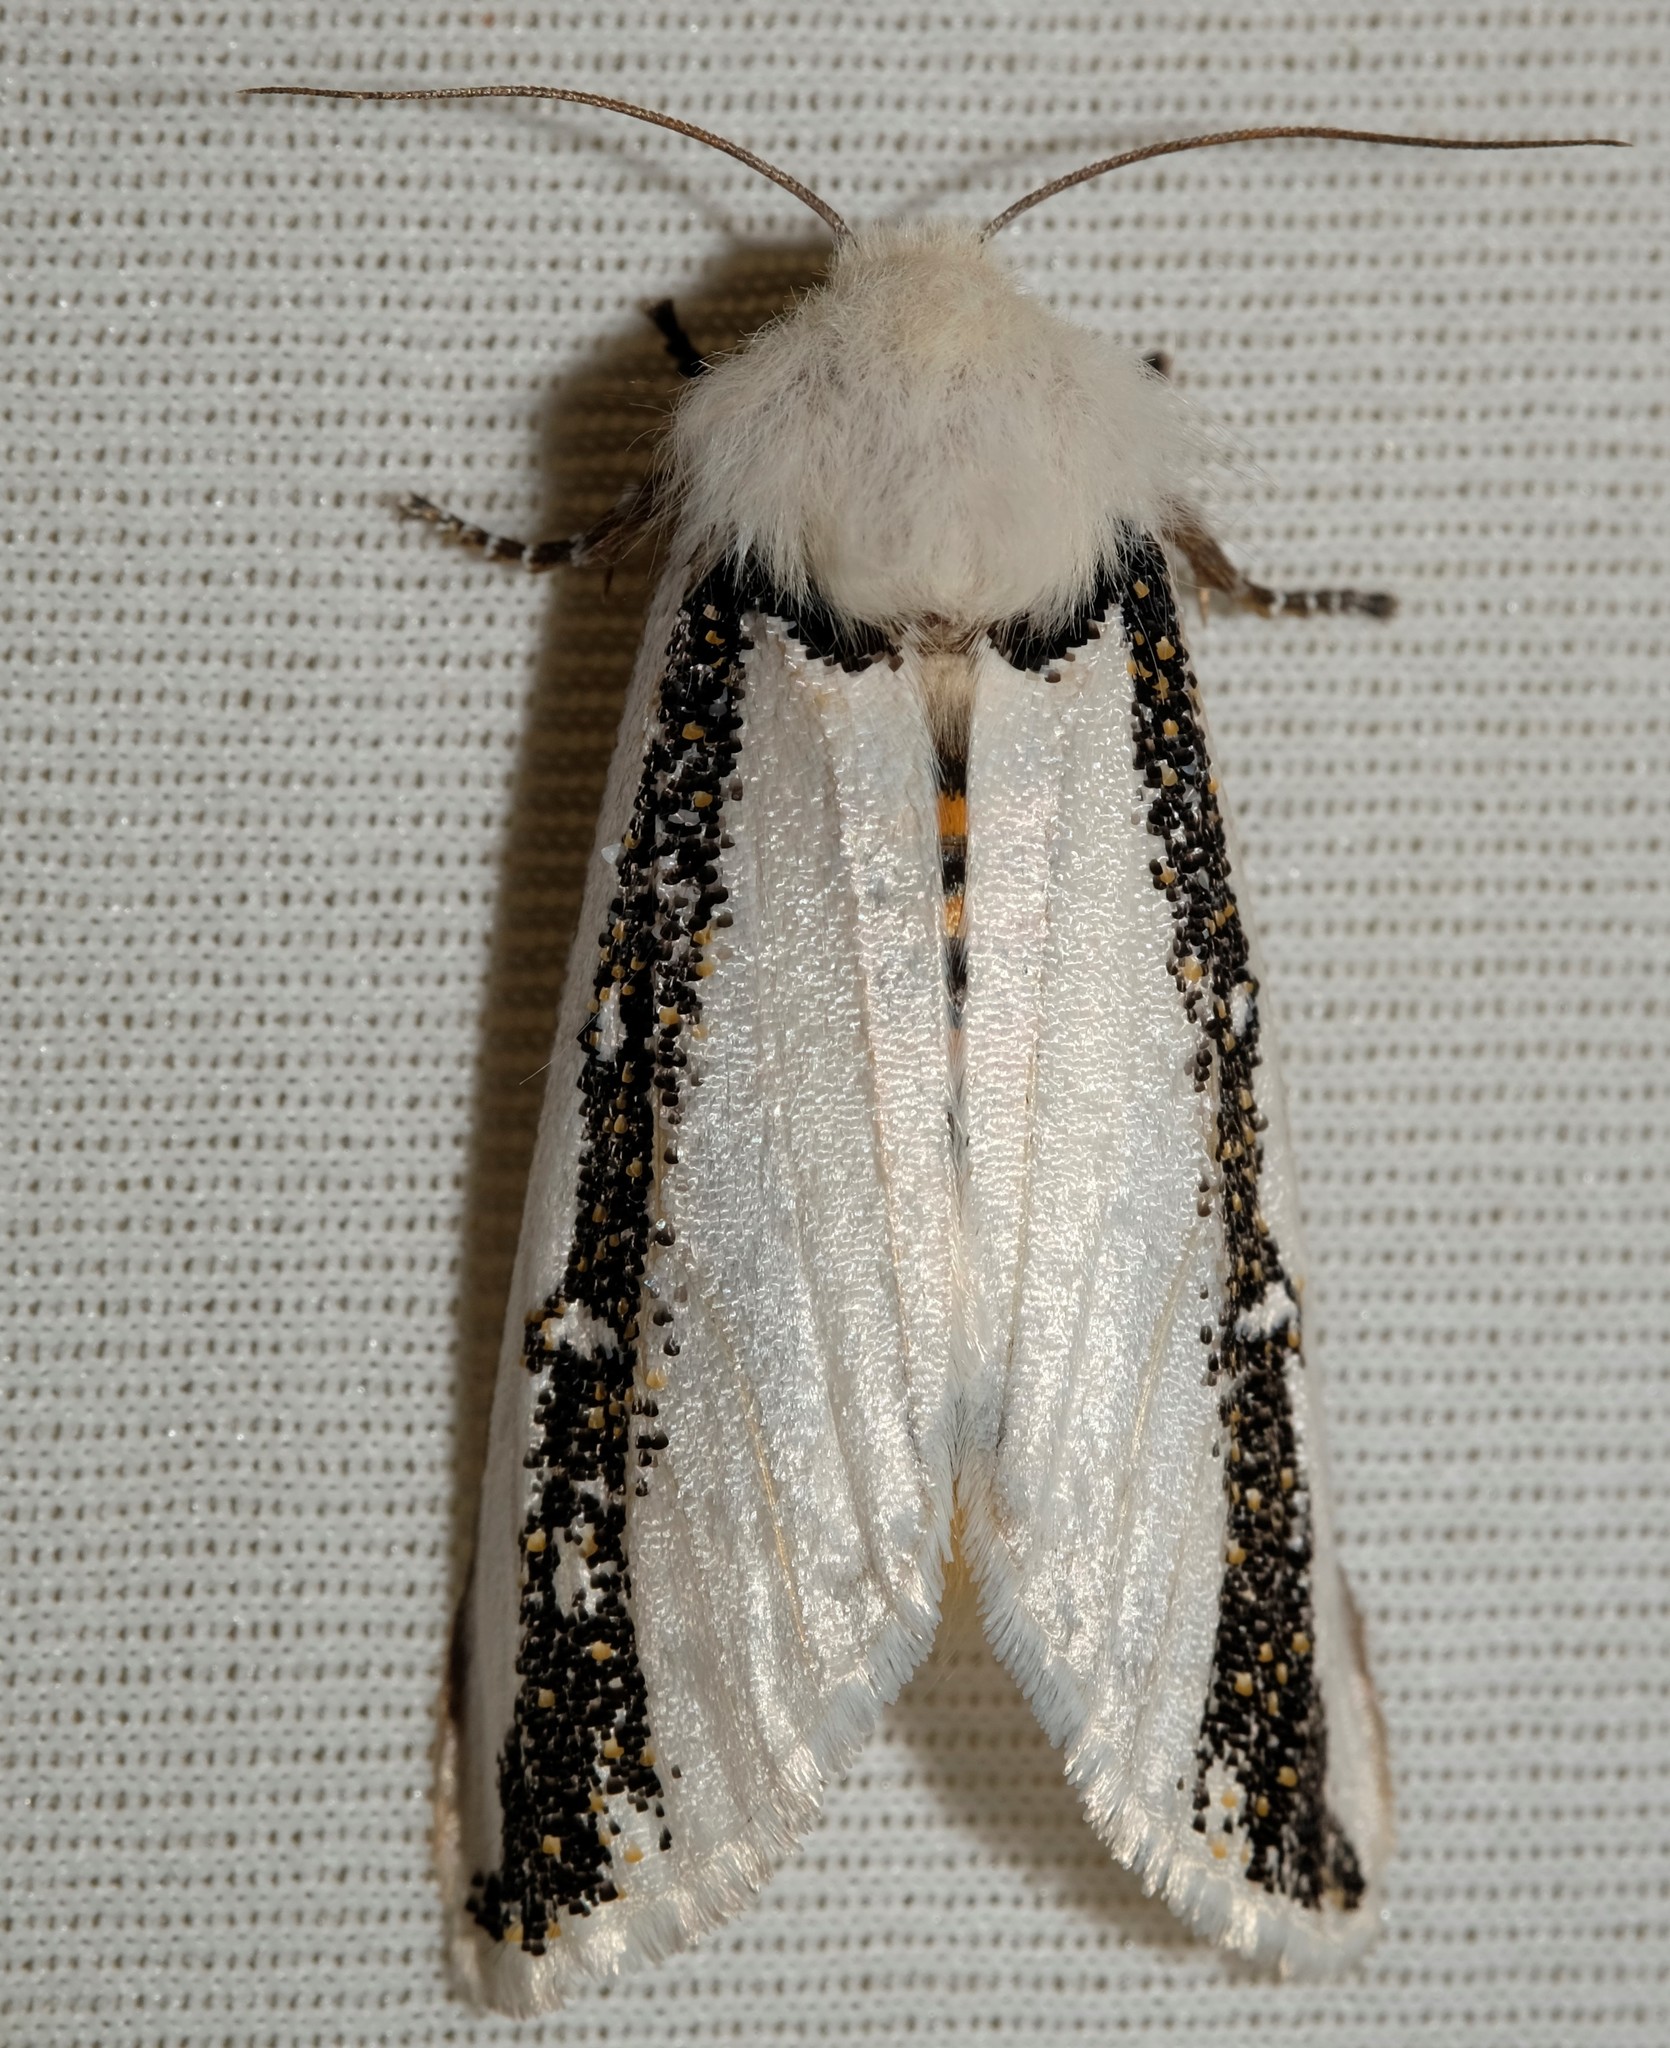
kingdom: Animalia
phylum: Arthropoda
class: Insecta
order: Lepidoptera
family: Oenosandridae
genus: Oenosandra
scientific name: Oenosandra boisduvalii
